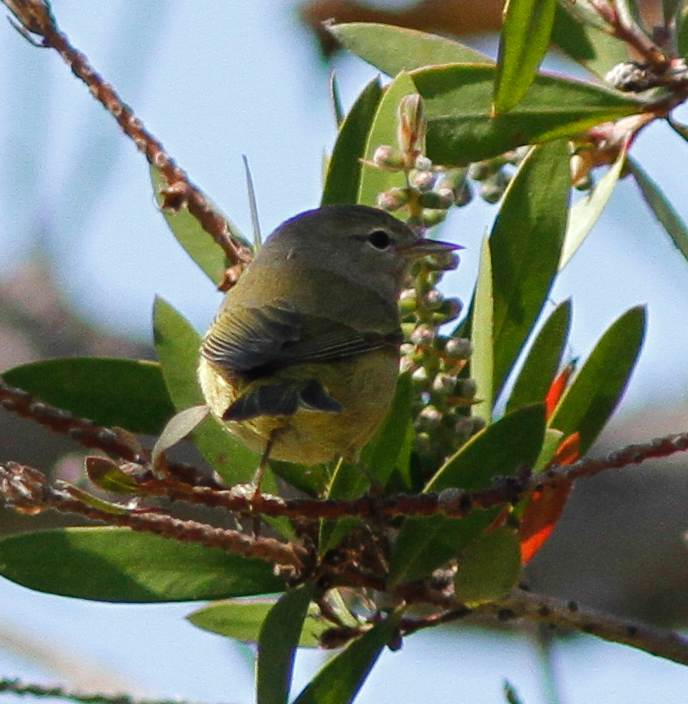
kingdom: Animalia
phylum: Chordata
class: Aves
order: Passeriformes
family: Parulidae
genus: Leiothlypis
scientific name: Leiothlypis celata
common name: Orange-crowned warbler
